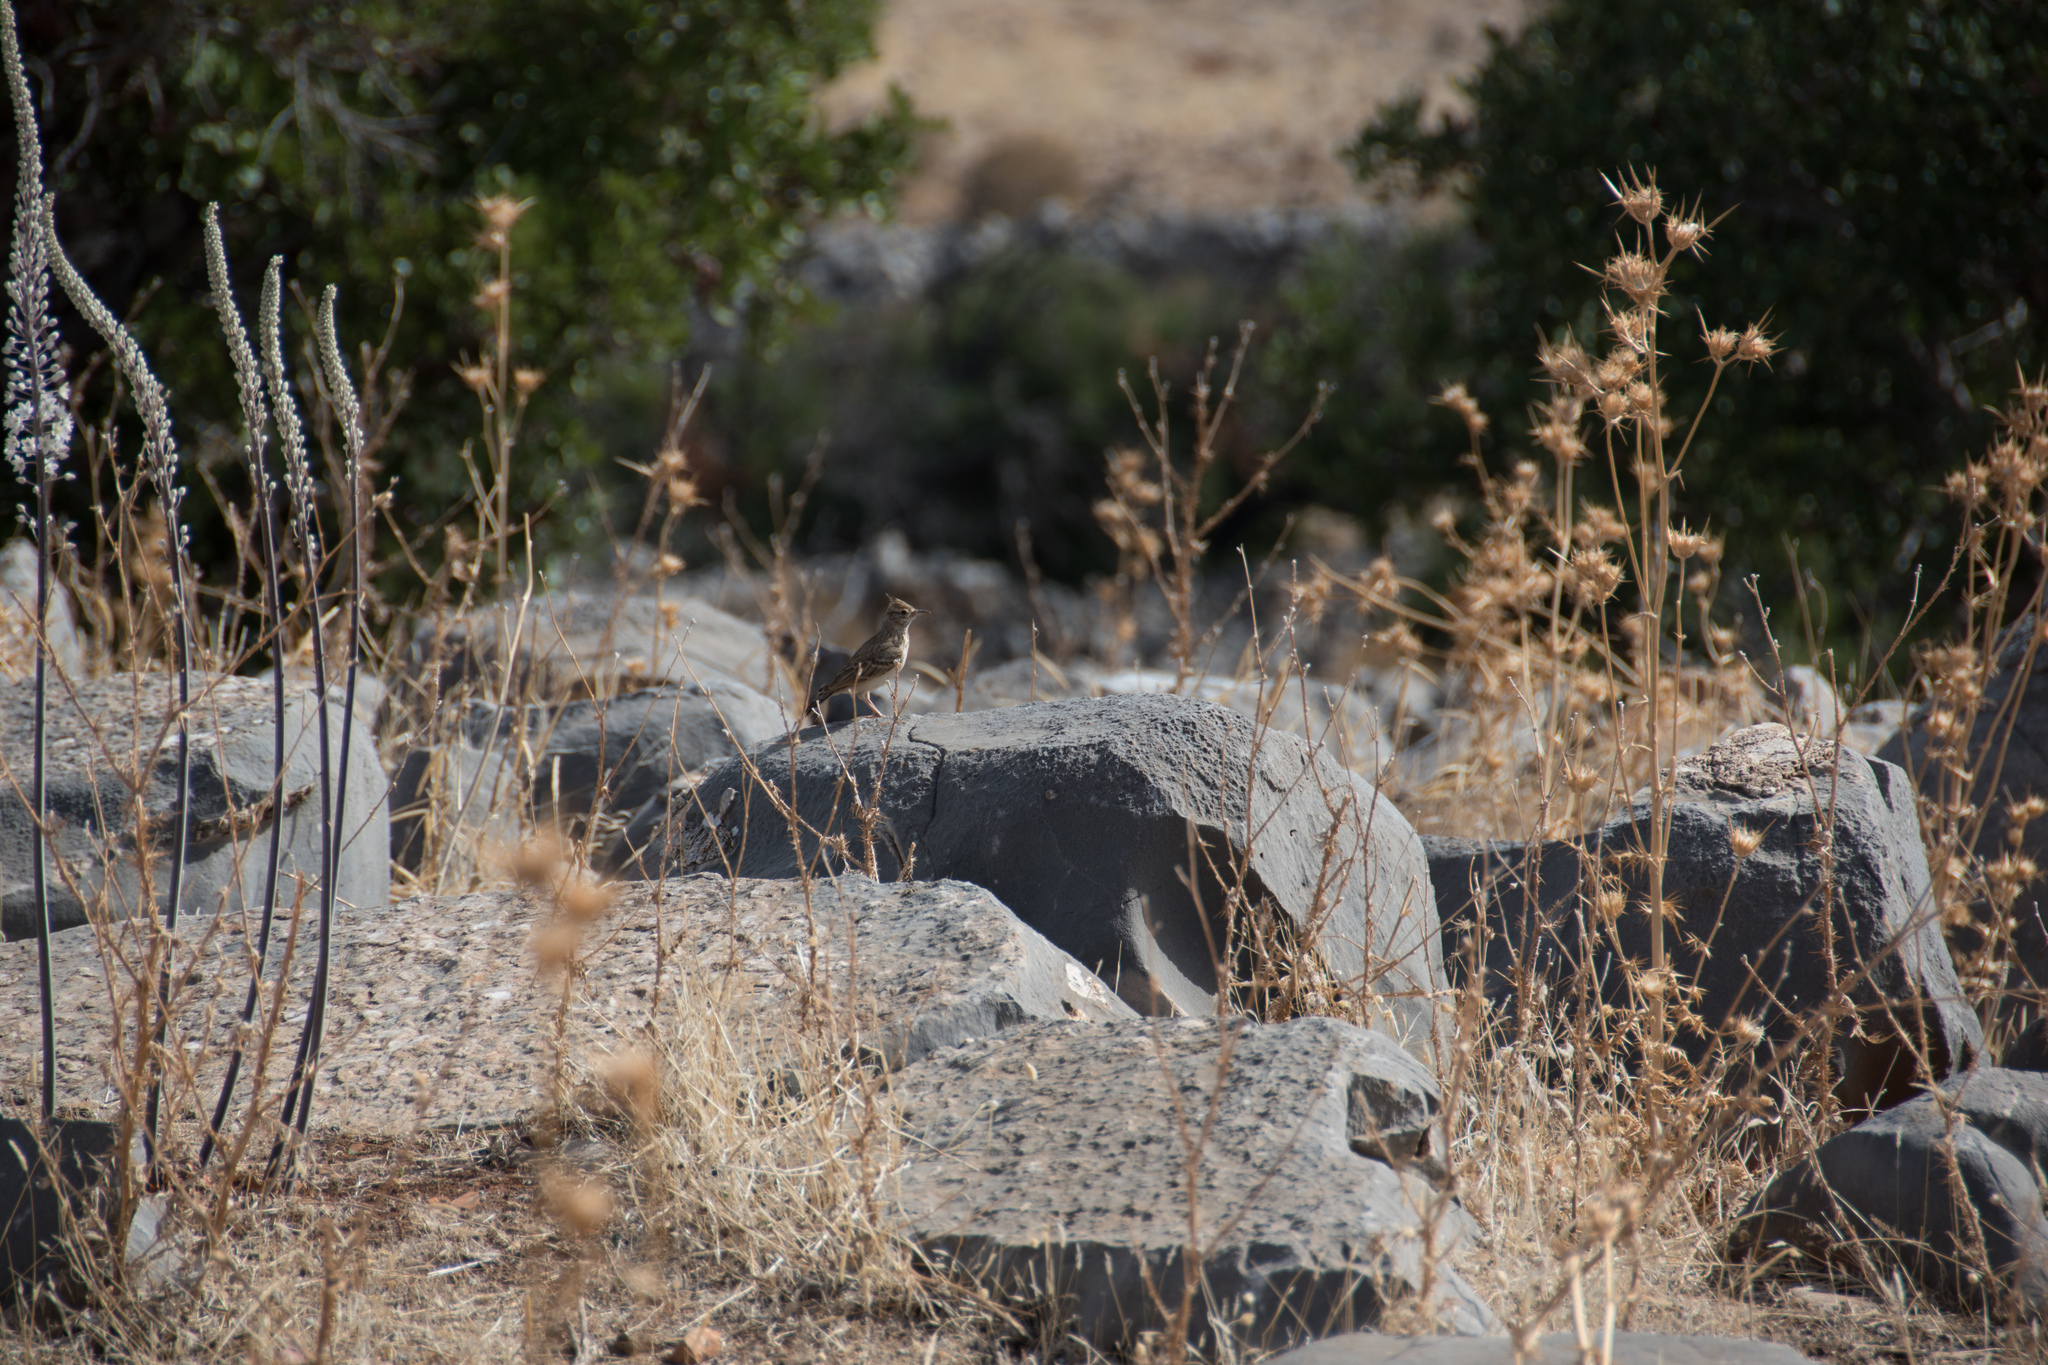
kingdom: Animalia
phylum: Chordata
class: Aves
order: Passeriformes
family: Alaudidae
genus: Galerida
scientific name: Galerida cristata
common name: Crested lark
